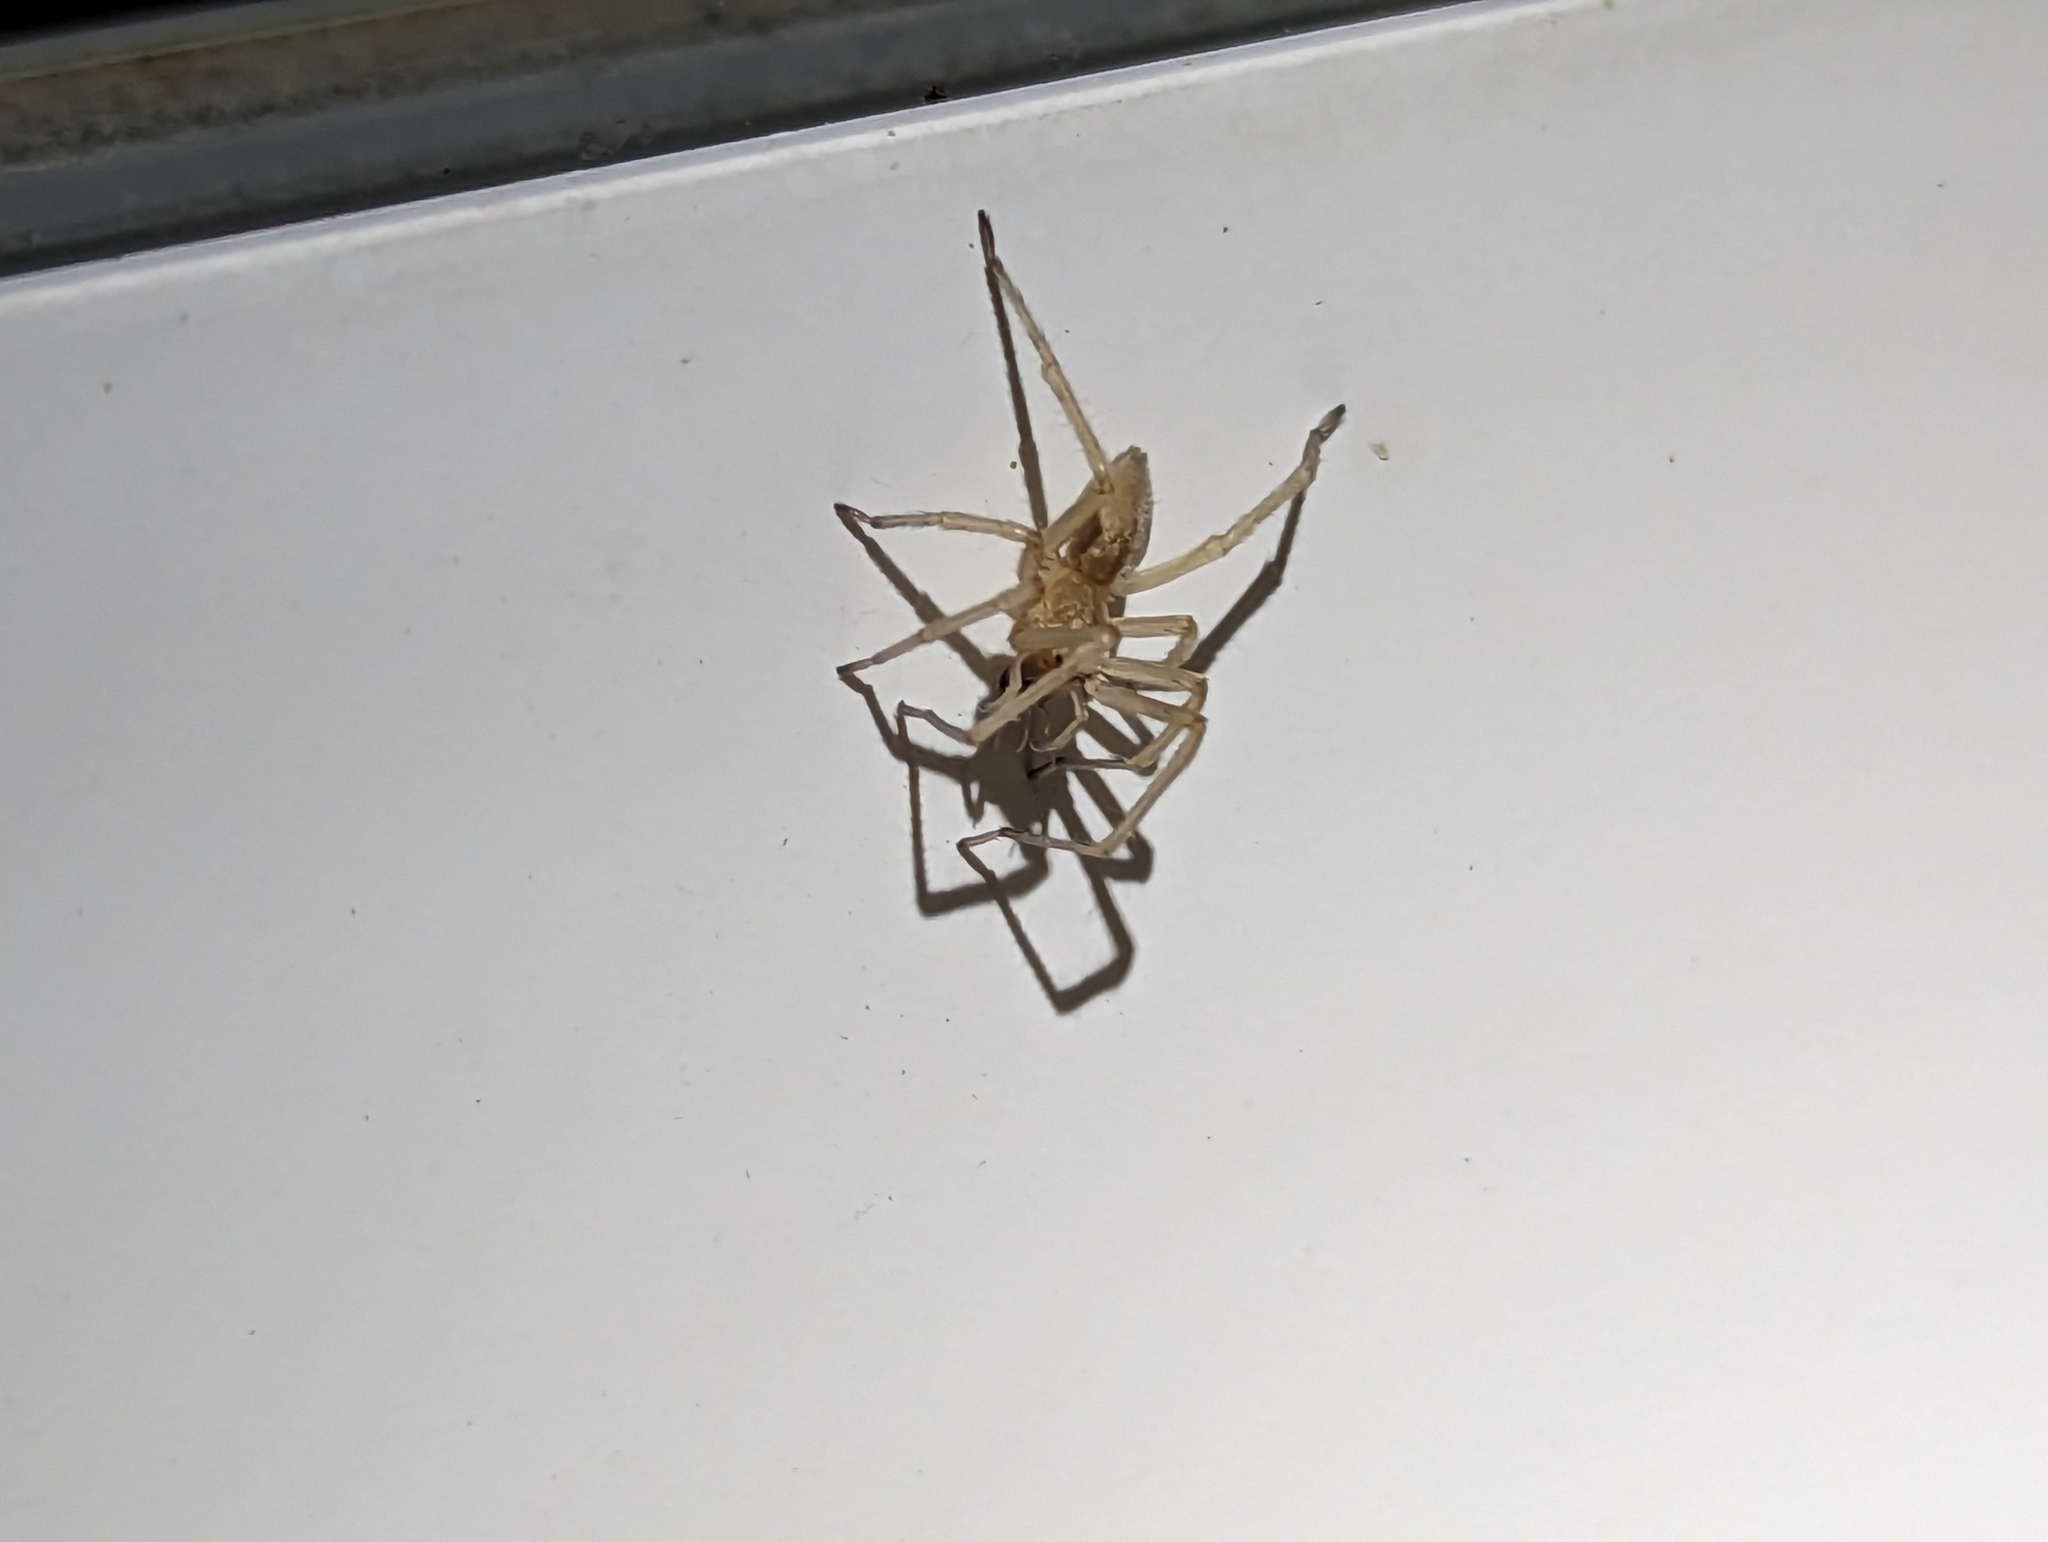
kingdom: Animalia
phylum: Arthropoda
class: Arachnida
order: Araneae
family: Cheiracanthiidae
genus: Cheiracanthium
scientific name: Cheiracanthium mildei
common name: Northern yellow sac spider
